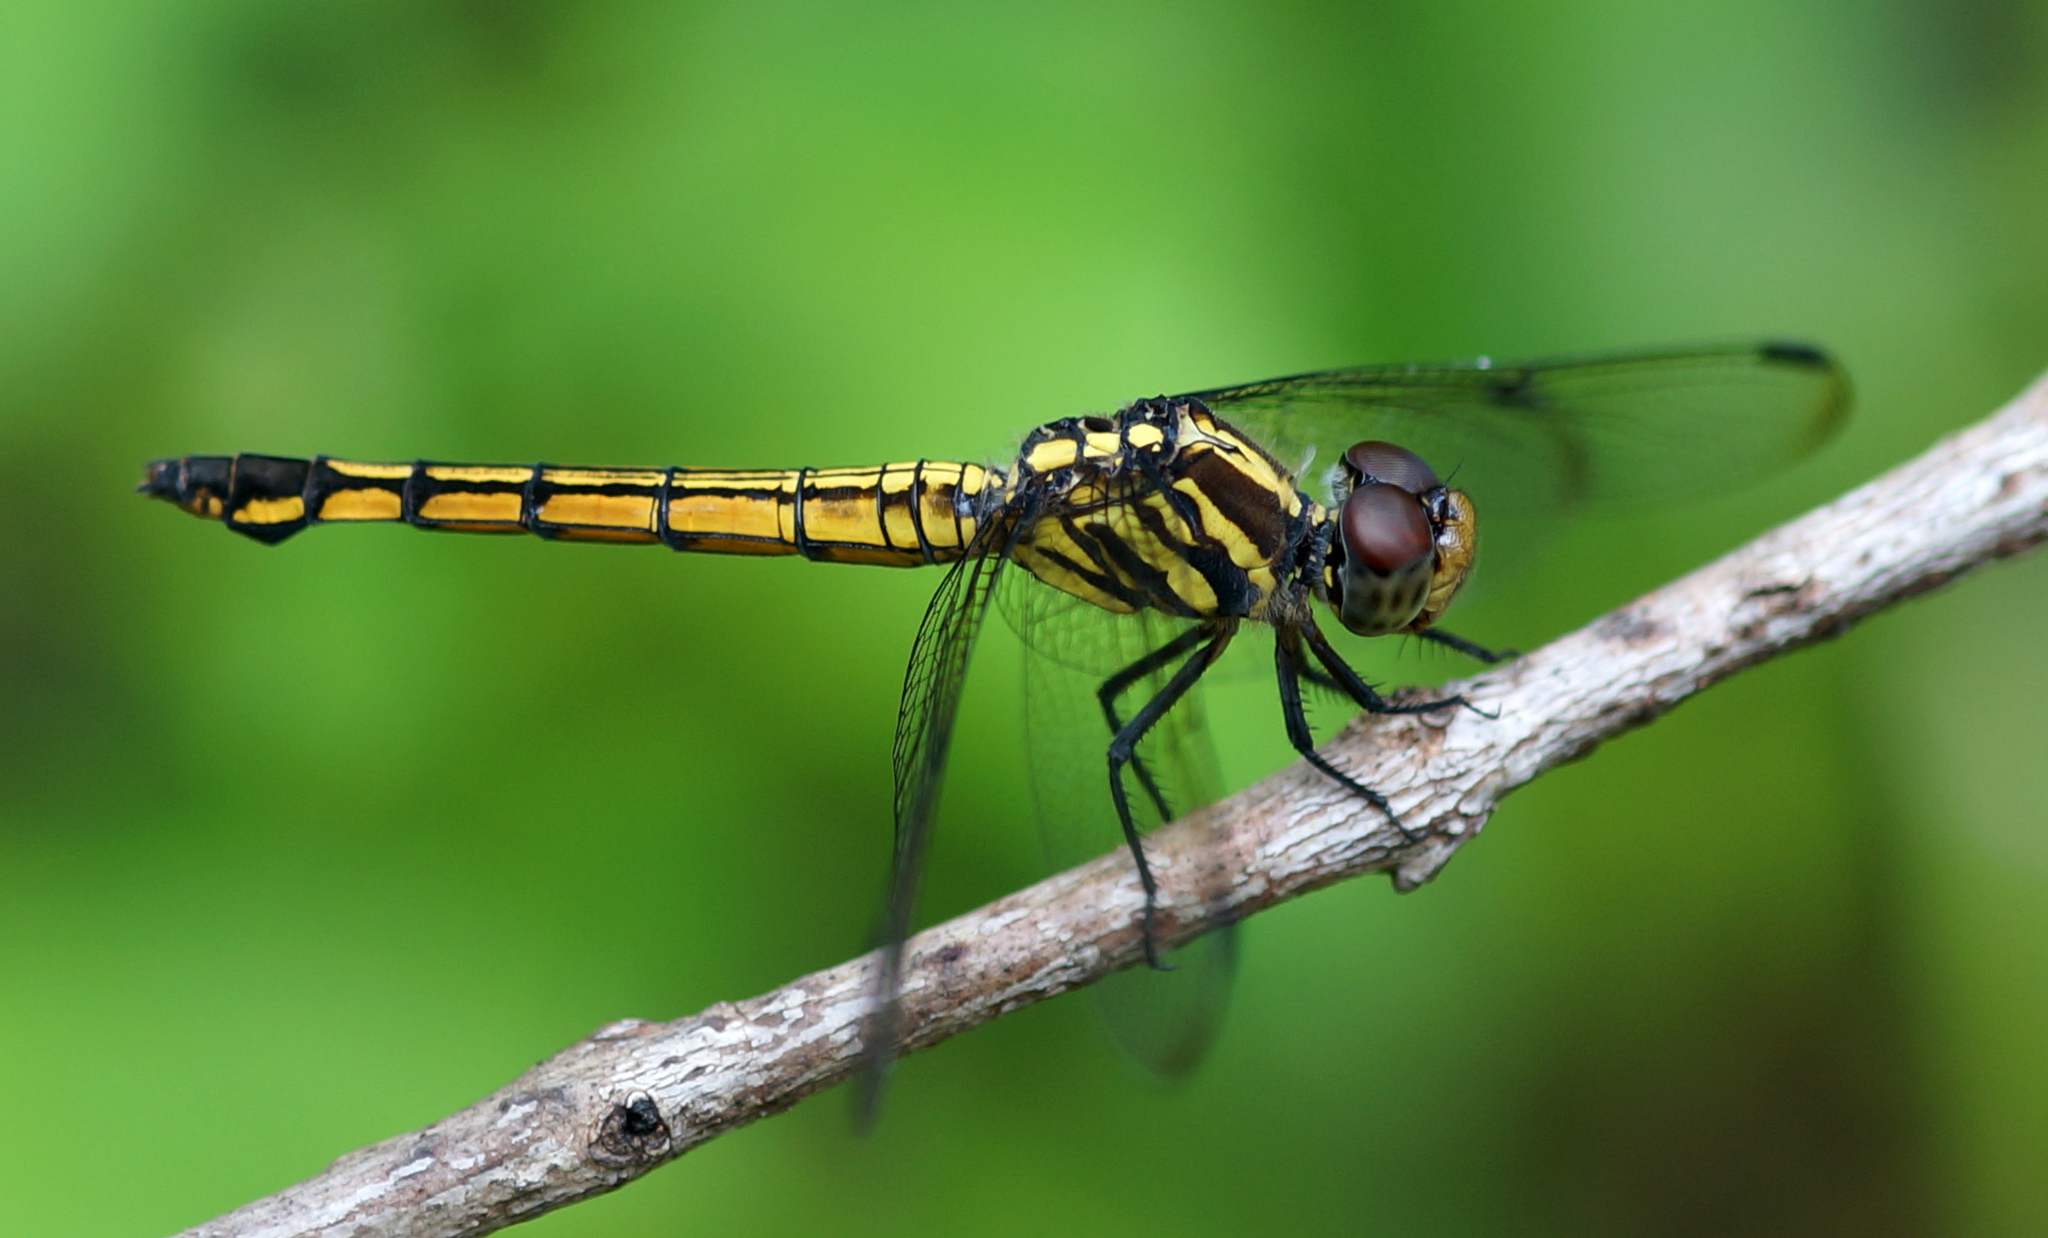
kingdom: Animalia
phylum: Arthropoda
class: Insecta
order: Odonata
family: Libellulidae
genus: Potamarcha
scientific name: Potamarcha congener
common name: Blue chaser
